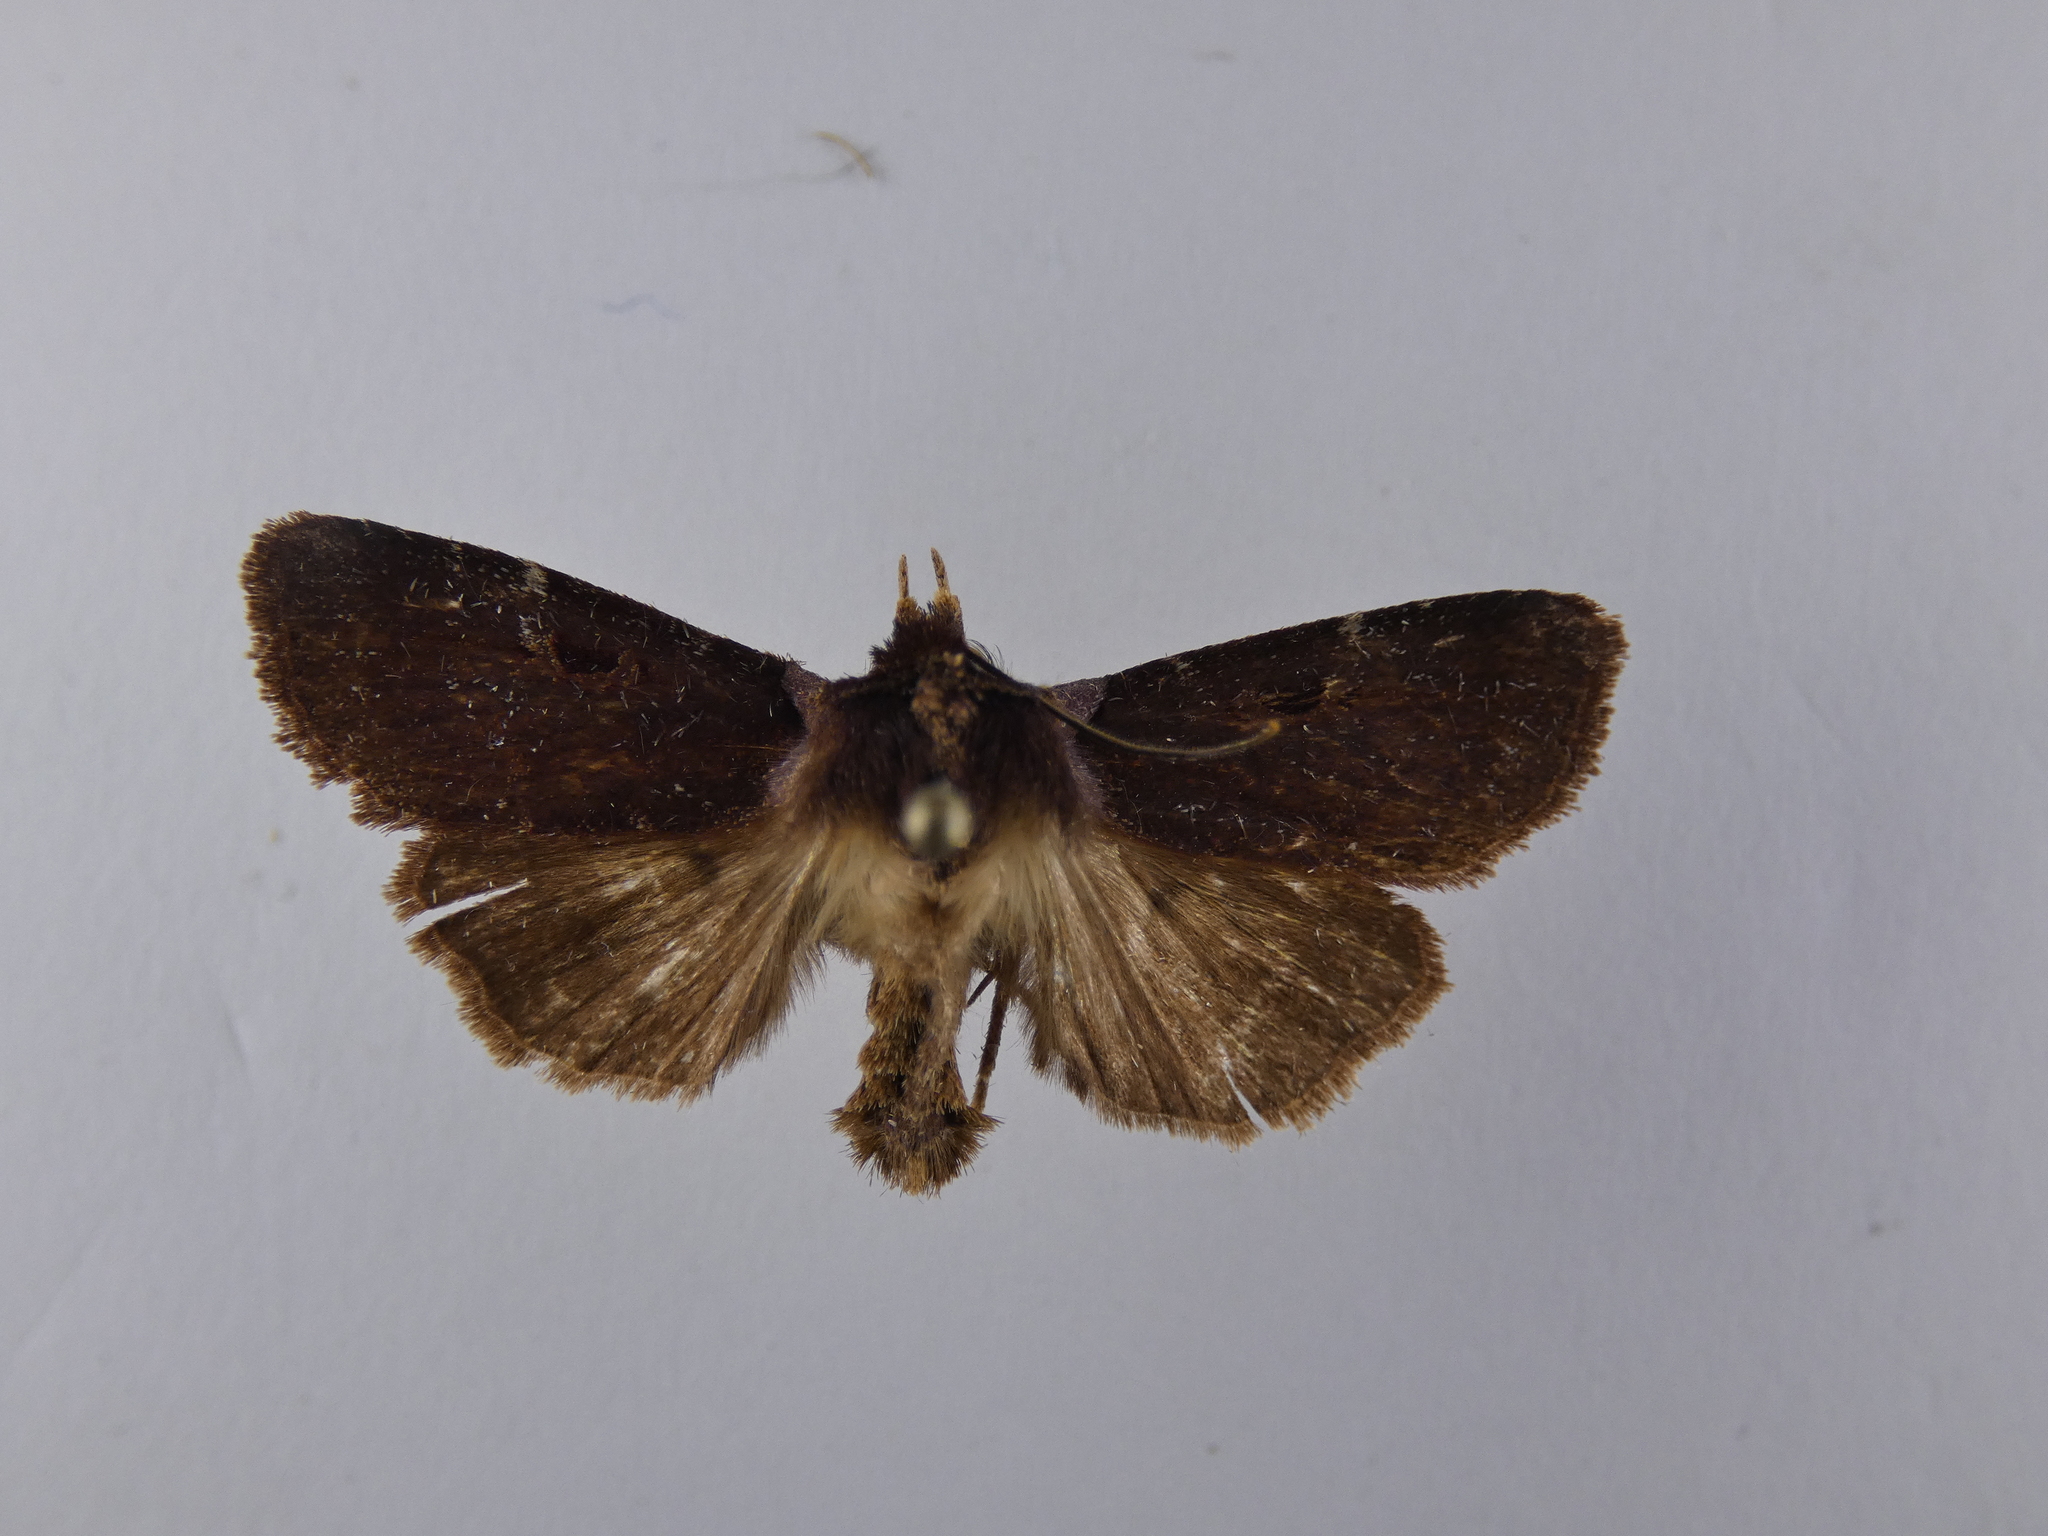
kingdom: Animalia
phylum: Arthropoda
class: Insecta
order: Lepidoptera
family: Noctuidae
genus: Austramathes
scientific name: Austramathes purpurea
